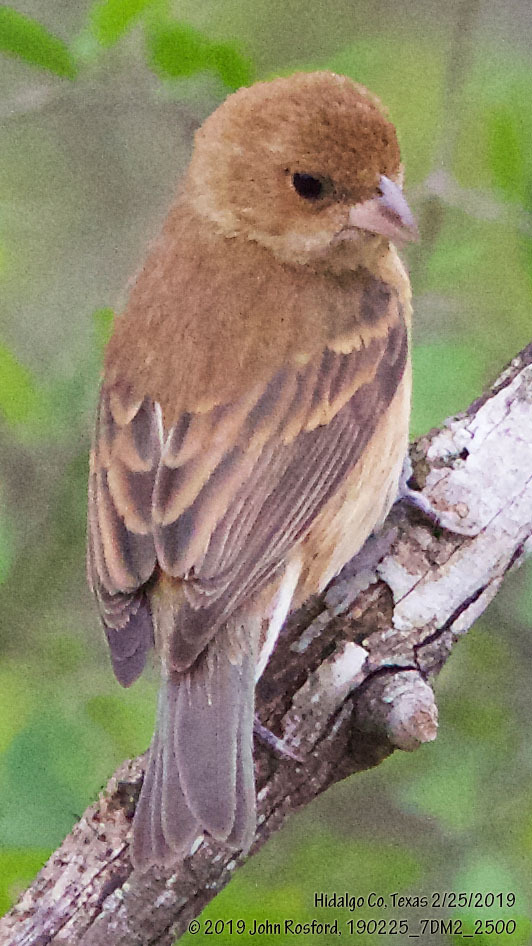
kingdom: Animalia
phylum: Chordata
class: Aves
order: Passeriformes
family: Cardinalidae
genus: Passerina
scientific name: Passerina cyanea
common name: Indigo bunting
